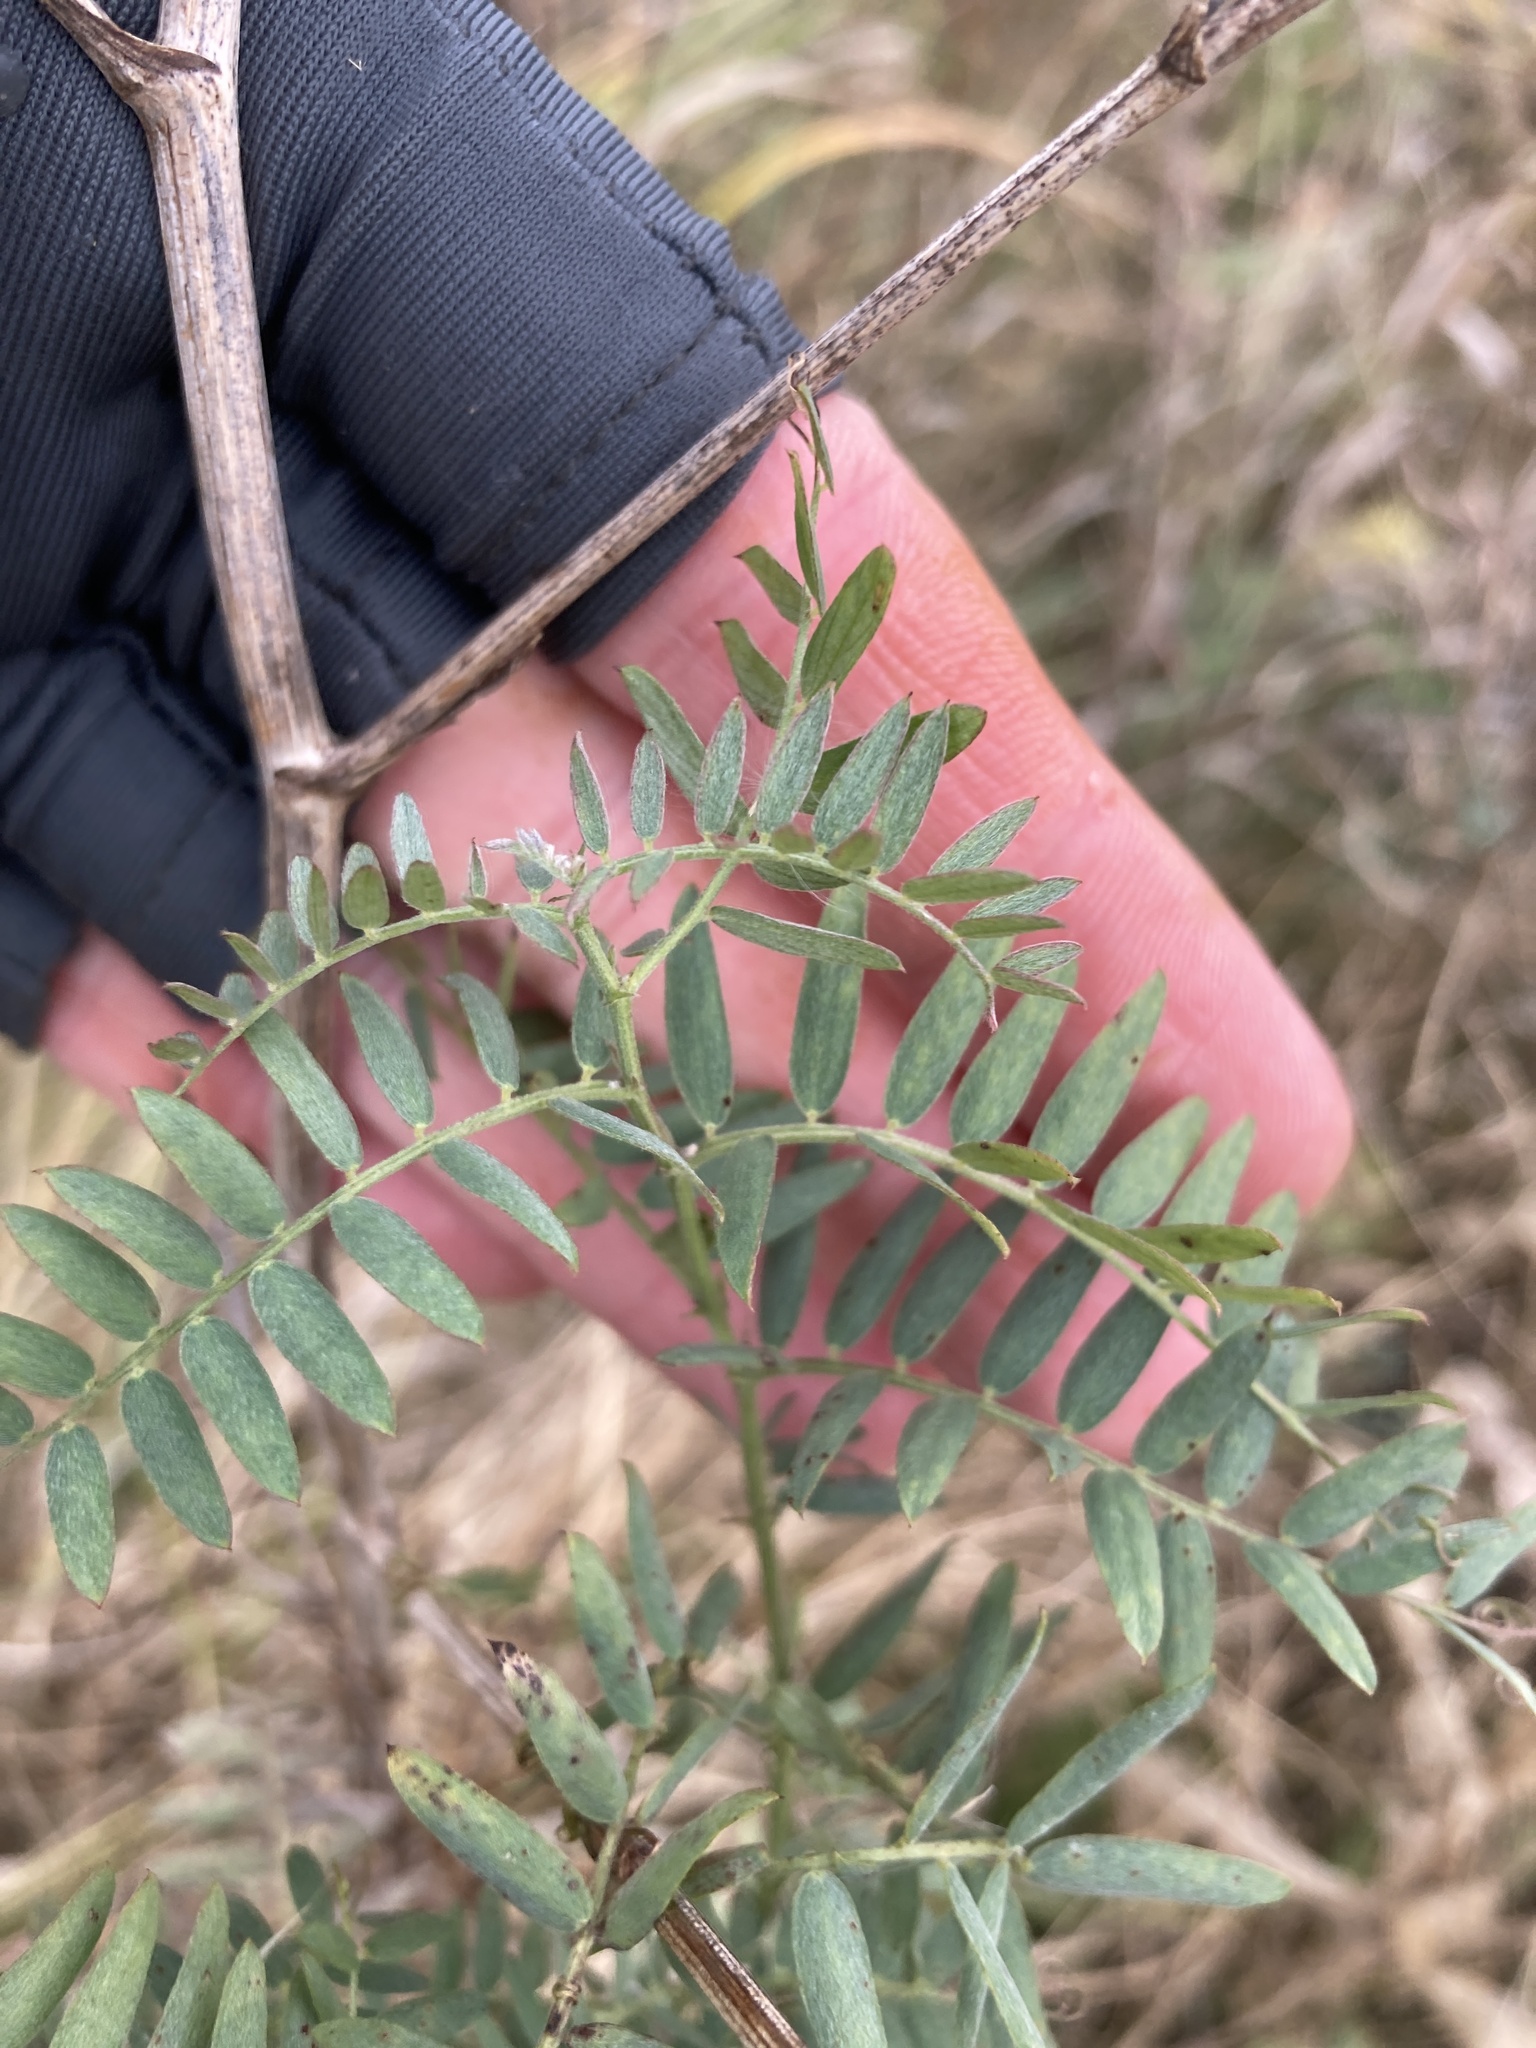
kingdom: Plantae
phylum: Tracheophyta
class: Magnoliopsida
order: Fabales
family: Fabaceae
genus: Vicia
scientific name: Vicia cracca
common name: Bird vetch
